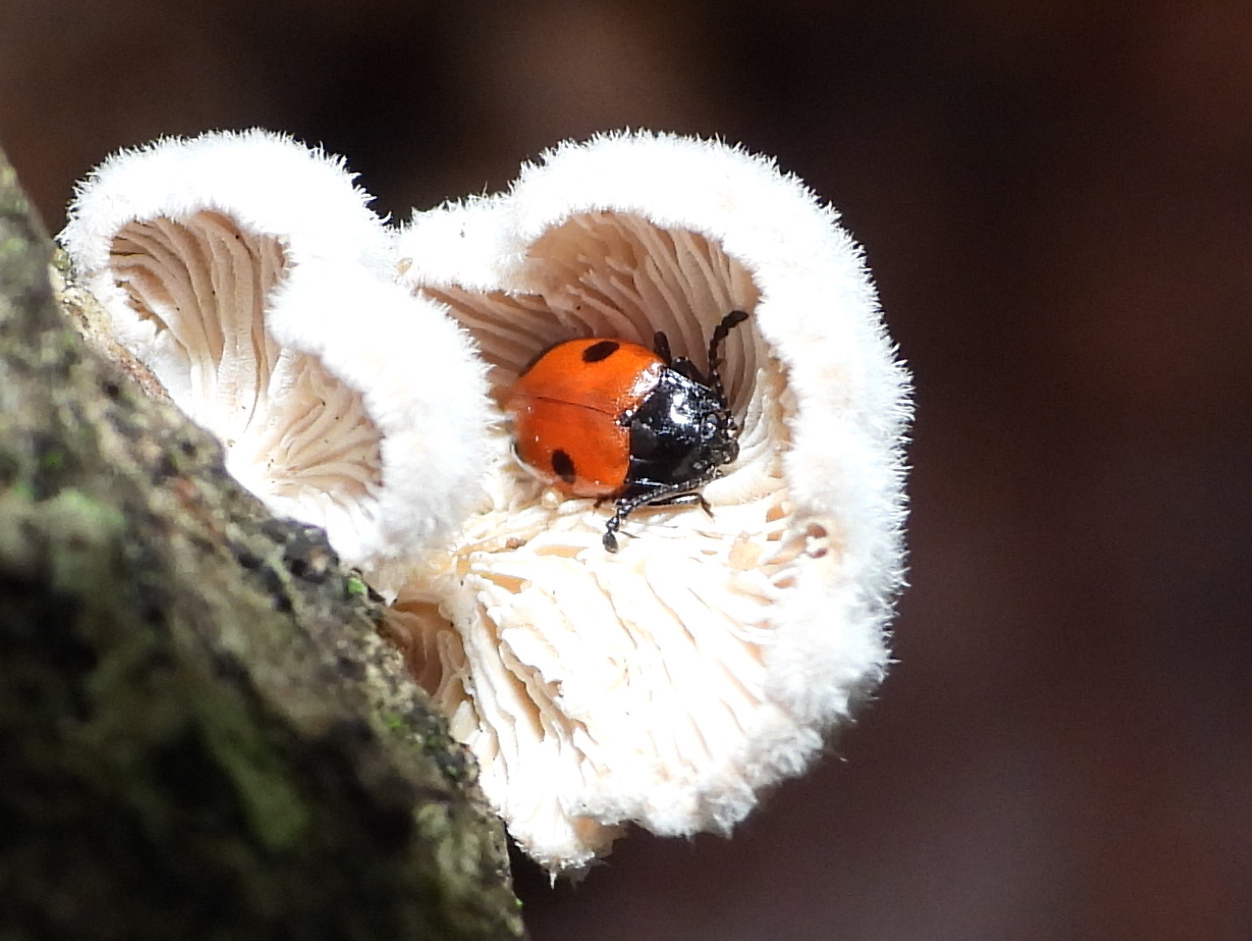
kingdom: Animalia
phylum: Arthropoda
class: Insecta
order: Coleoptera
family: Endomychidae
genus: Endomychus
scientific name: Endomychus biguttatus
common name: Handsome fungus beetle
